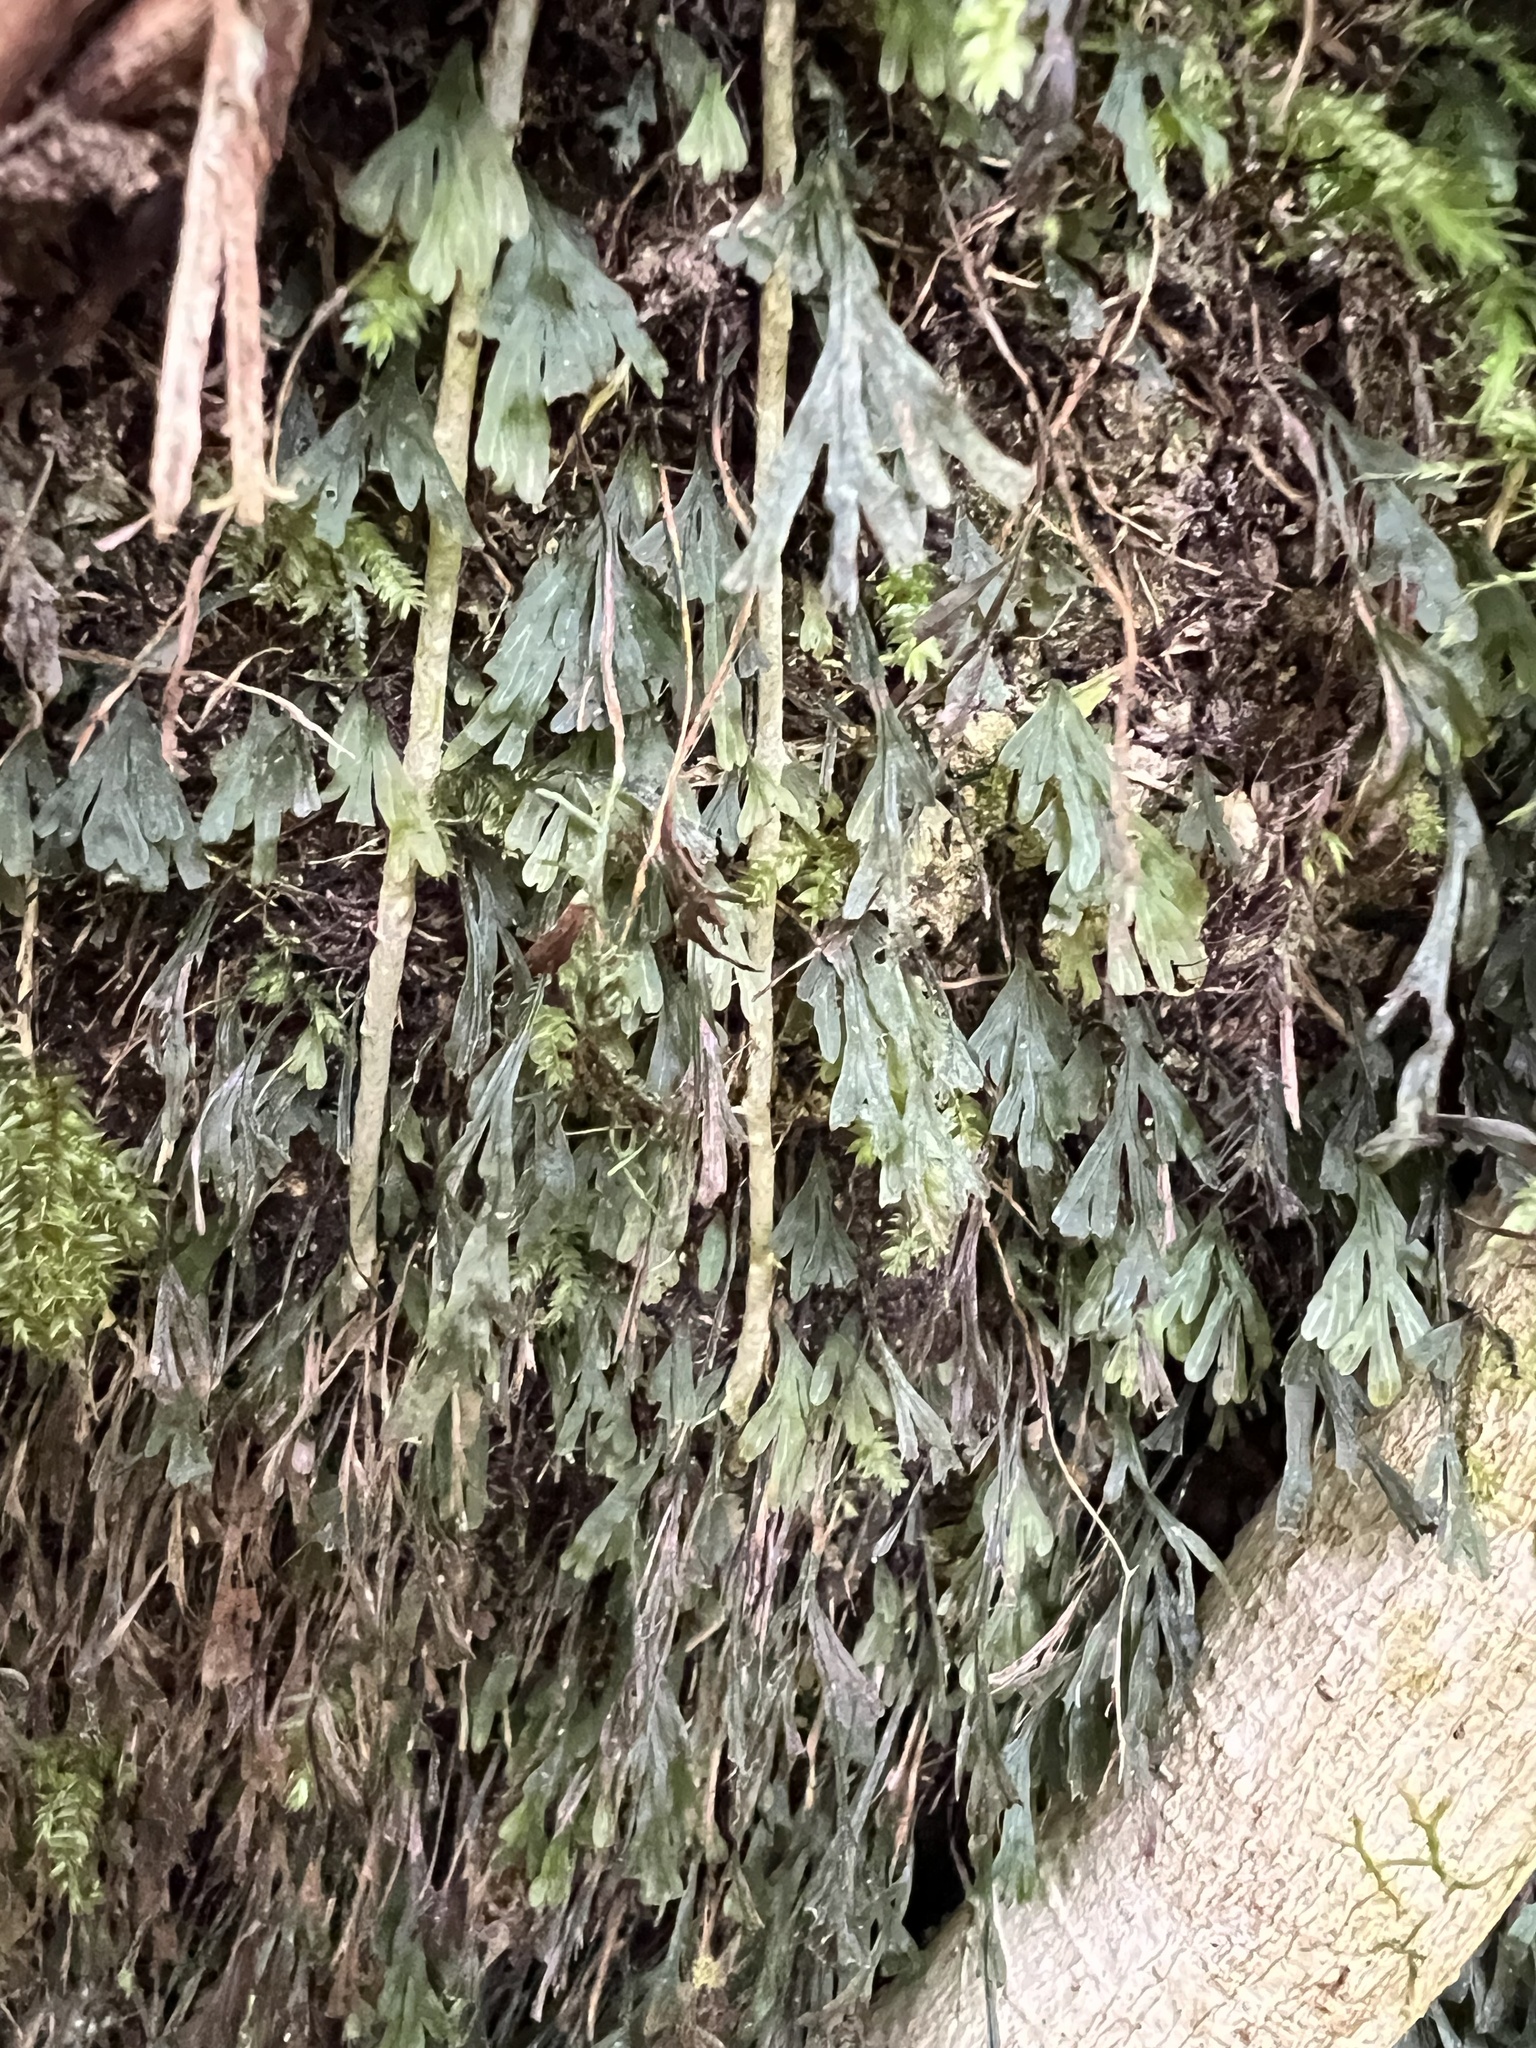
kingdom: Plantae
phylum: Tracheophyta
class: Polypodiopsida
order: Hymenophyllales
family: Hymenophyllaceae
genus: Polyphlebium
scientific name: Polyphlebium endlicherianum
